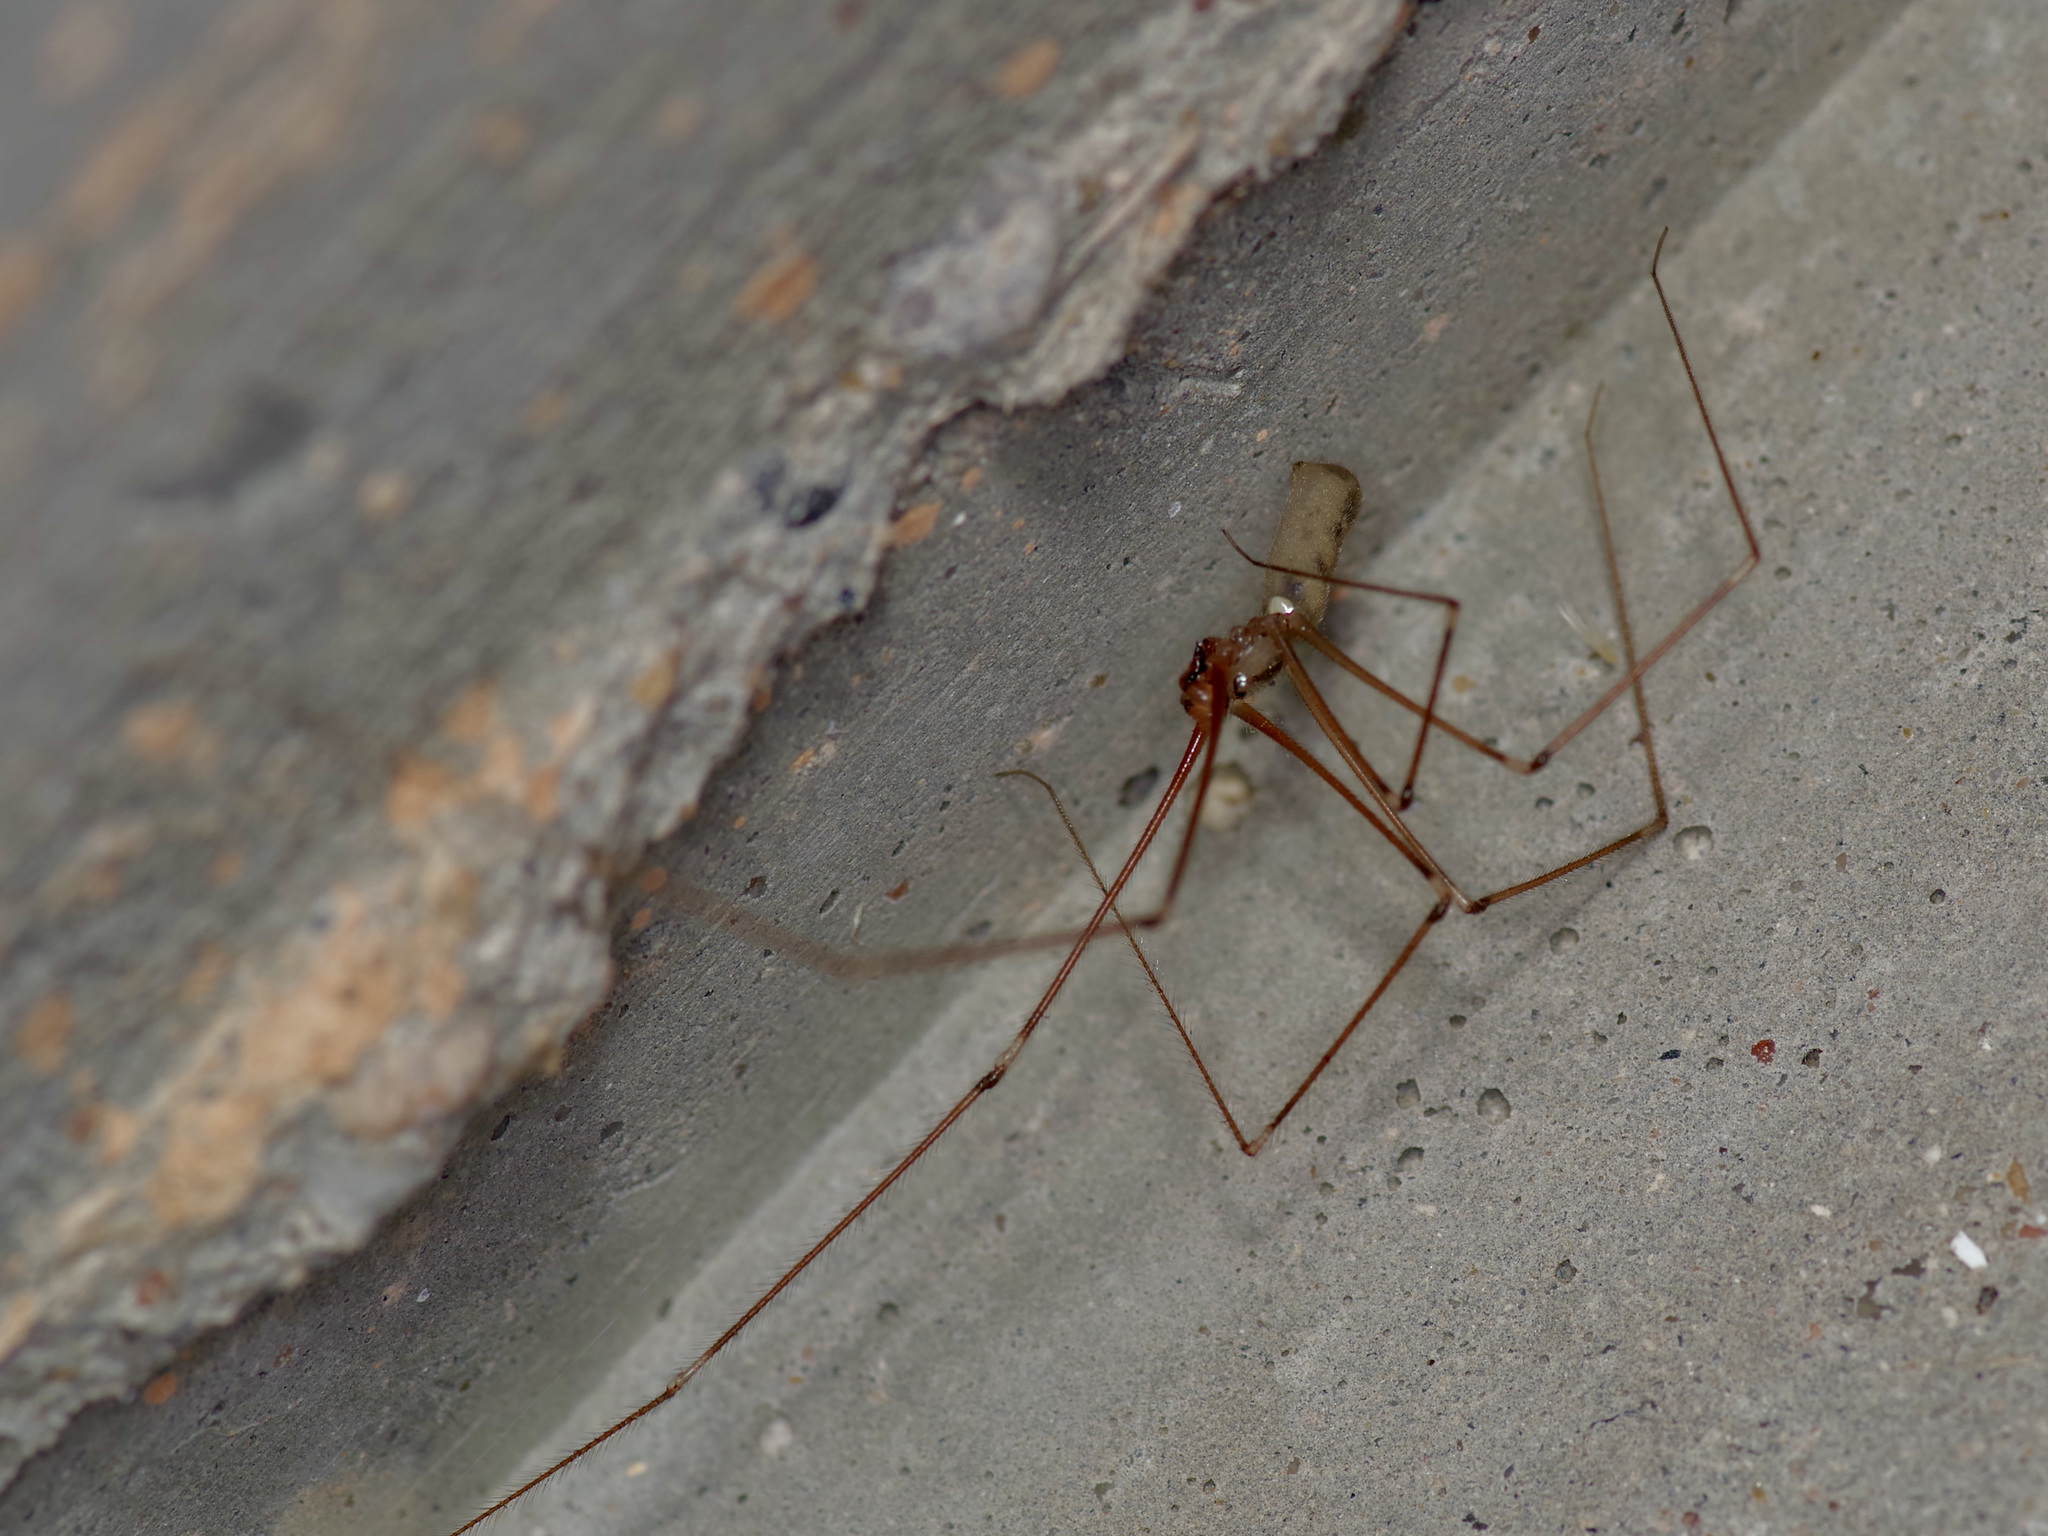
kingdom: Animalia
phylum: Arthropoda
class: Arachnida
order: Araneae
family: Pholcidae
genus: Pholcus
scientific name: Pholcus phalangioides
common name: Longbodied cellar spider
